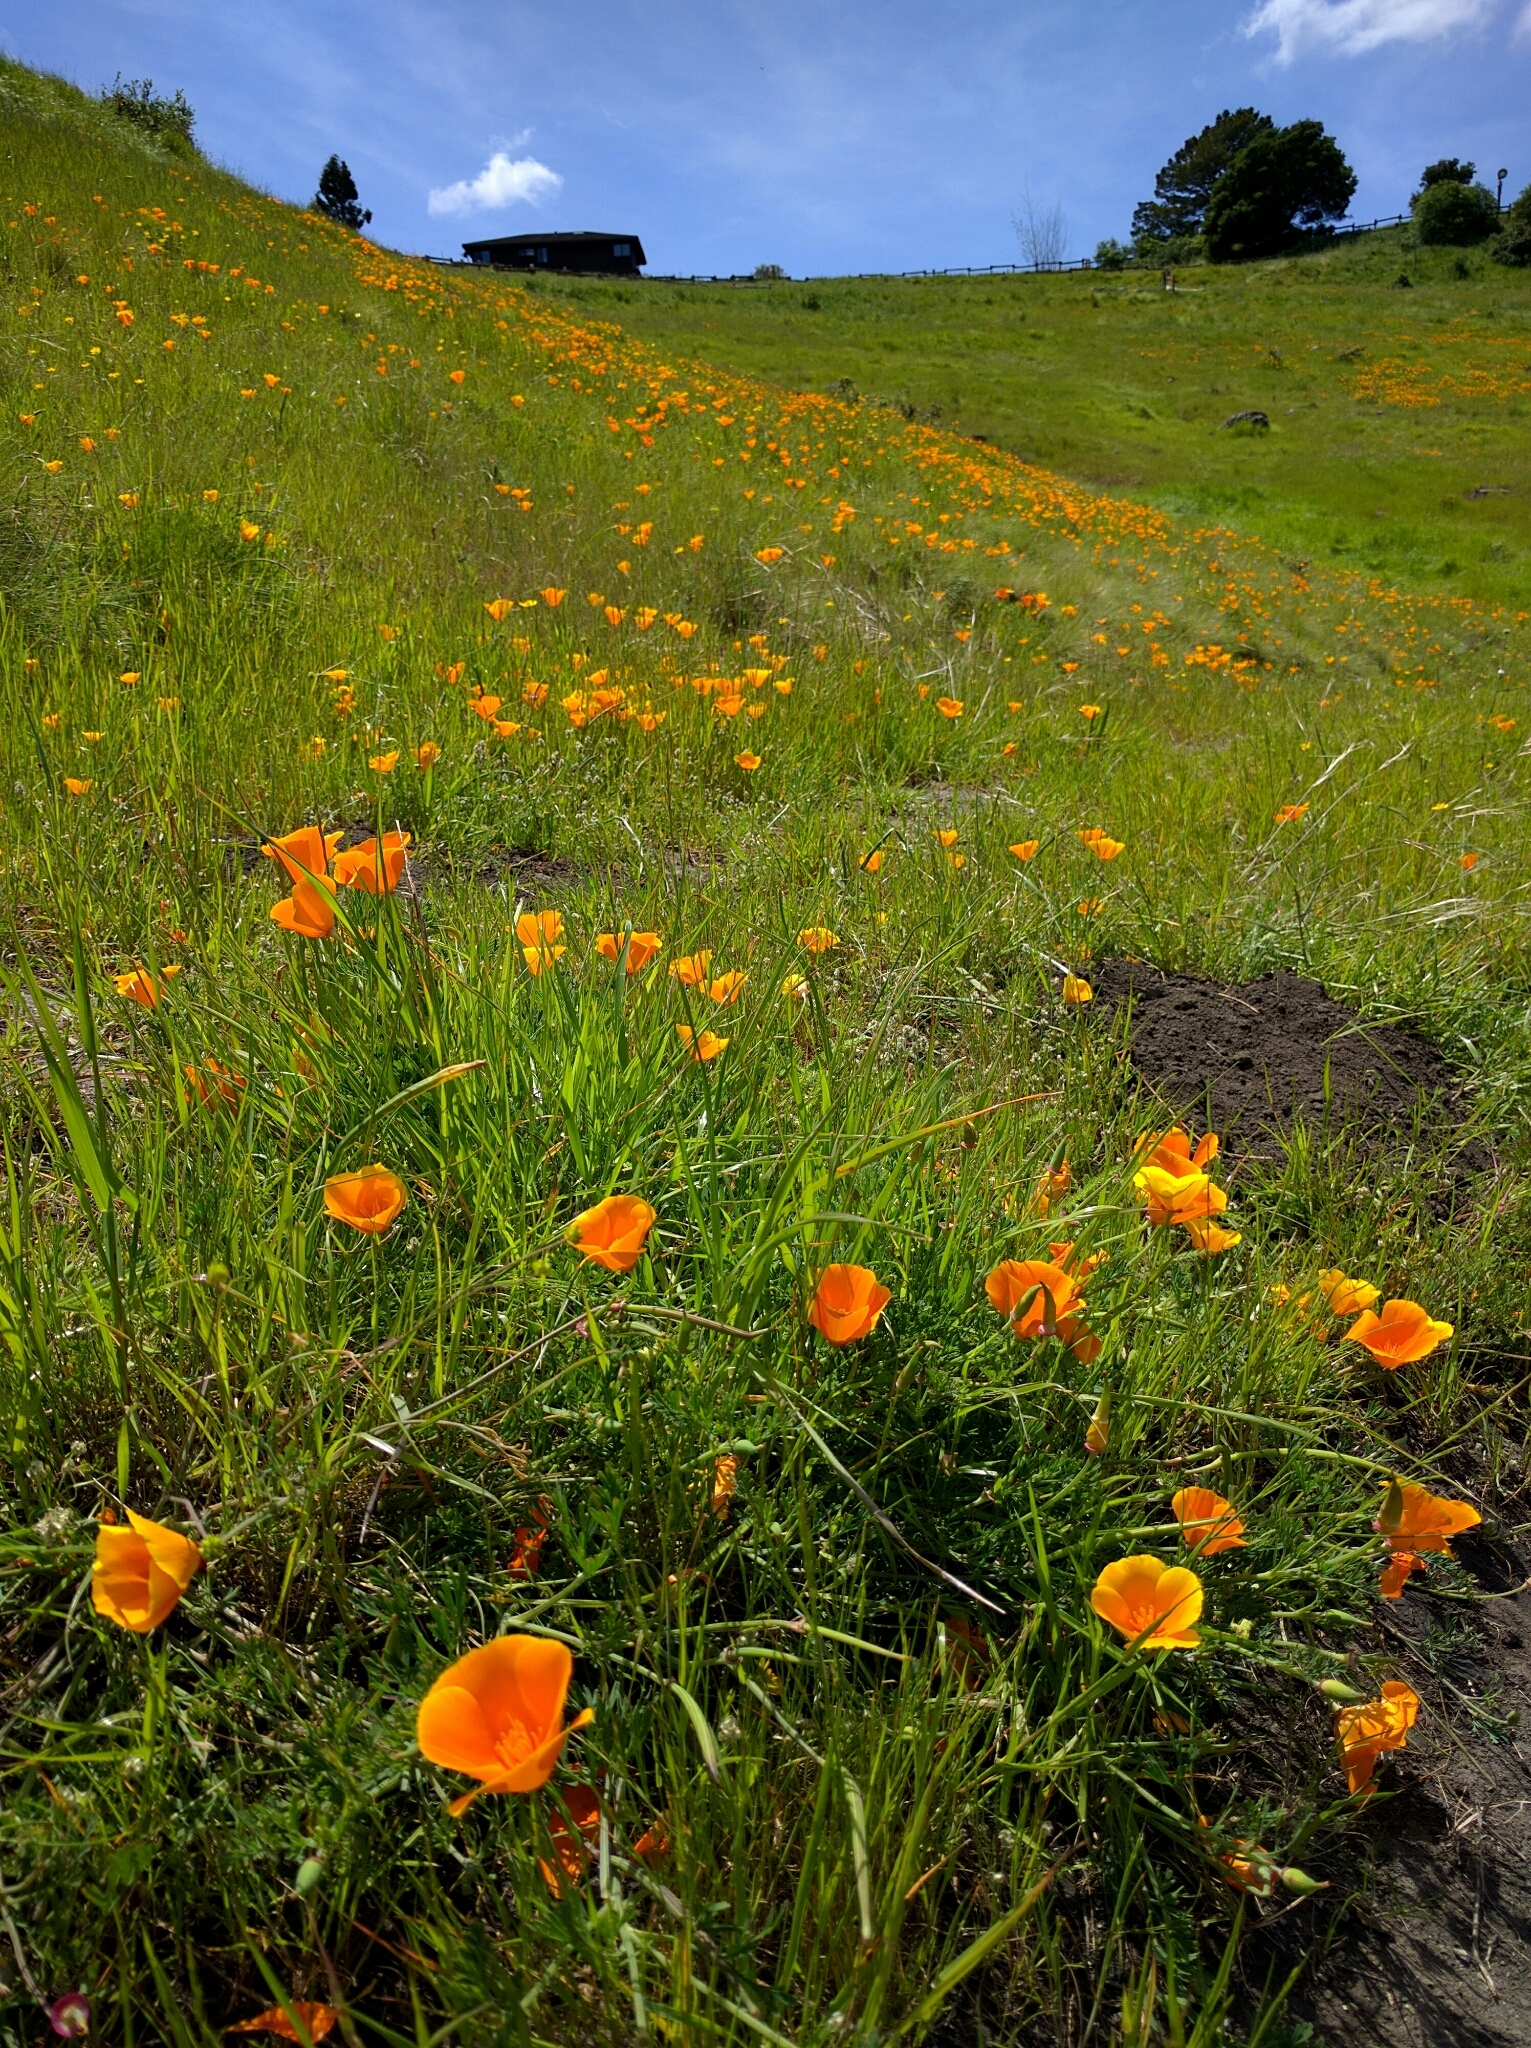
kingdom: Plantae
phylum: Tracheophyta
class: Magnoliopsida
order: Ranunculales
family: Papaveraceae
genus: Eschscholzia
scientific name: Eschscholzia californica
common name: California poppy
